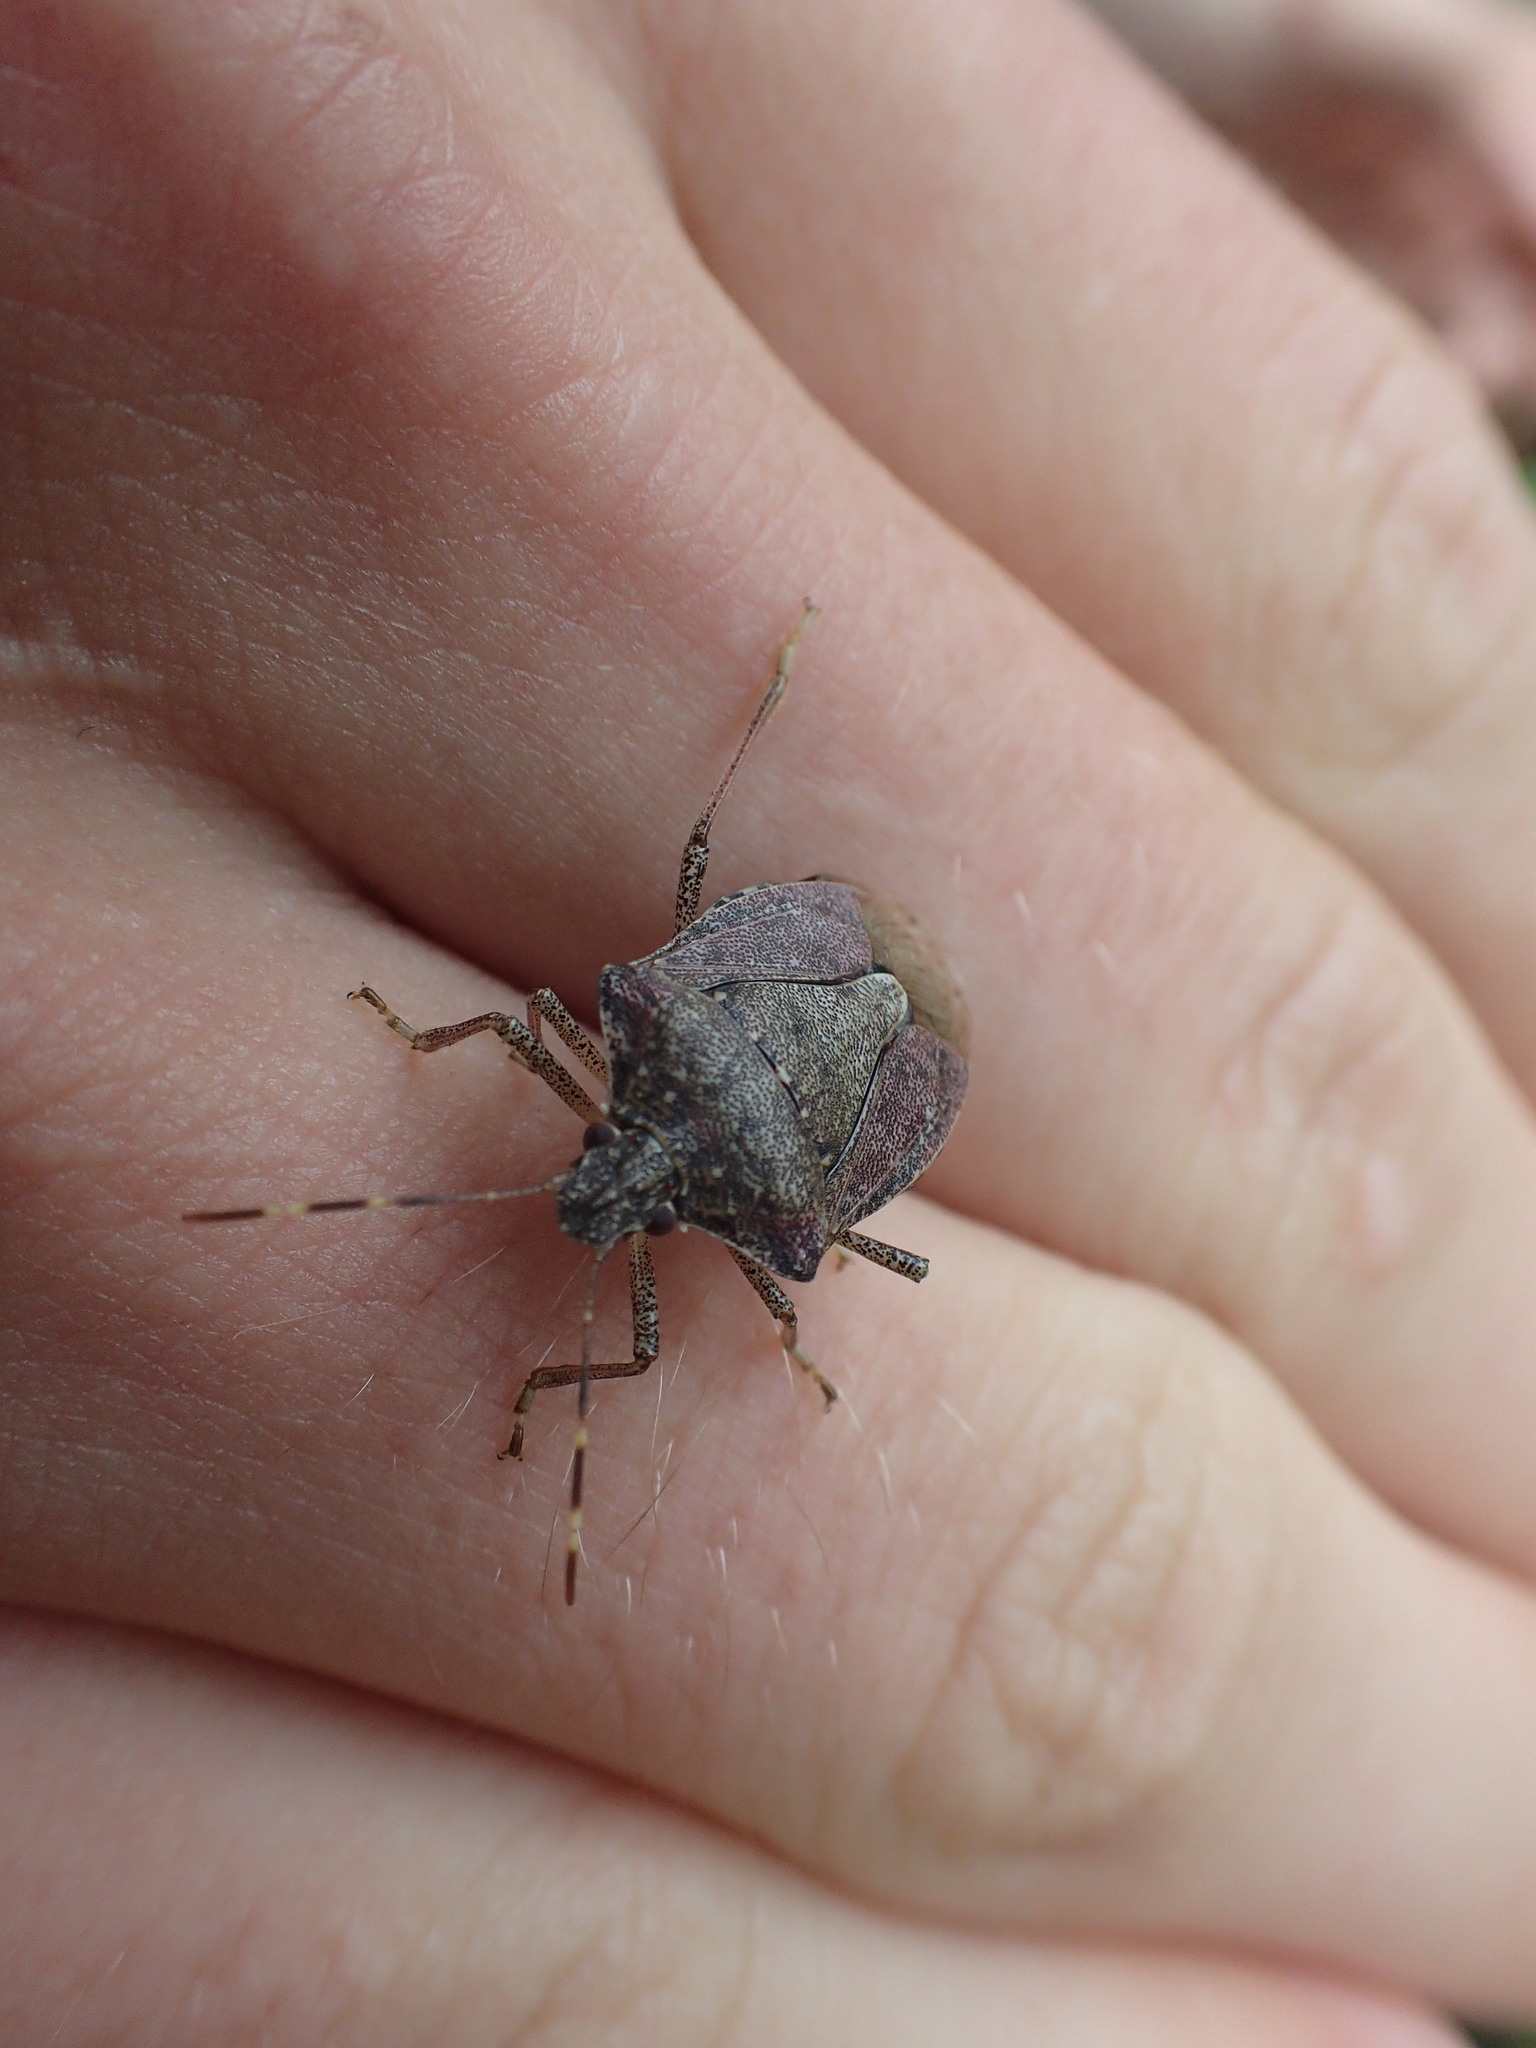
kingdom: Animalia
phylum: Arthropoda
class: Insecta
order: Hemiptera
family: Pentatomidae
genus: Halyomorpha
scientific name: Halyomorpha halys
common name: Brown marmorated stink bug
